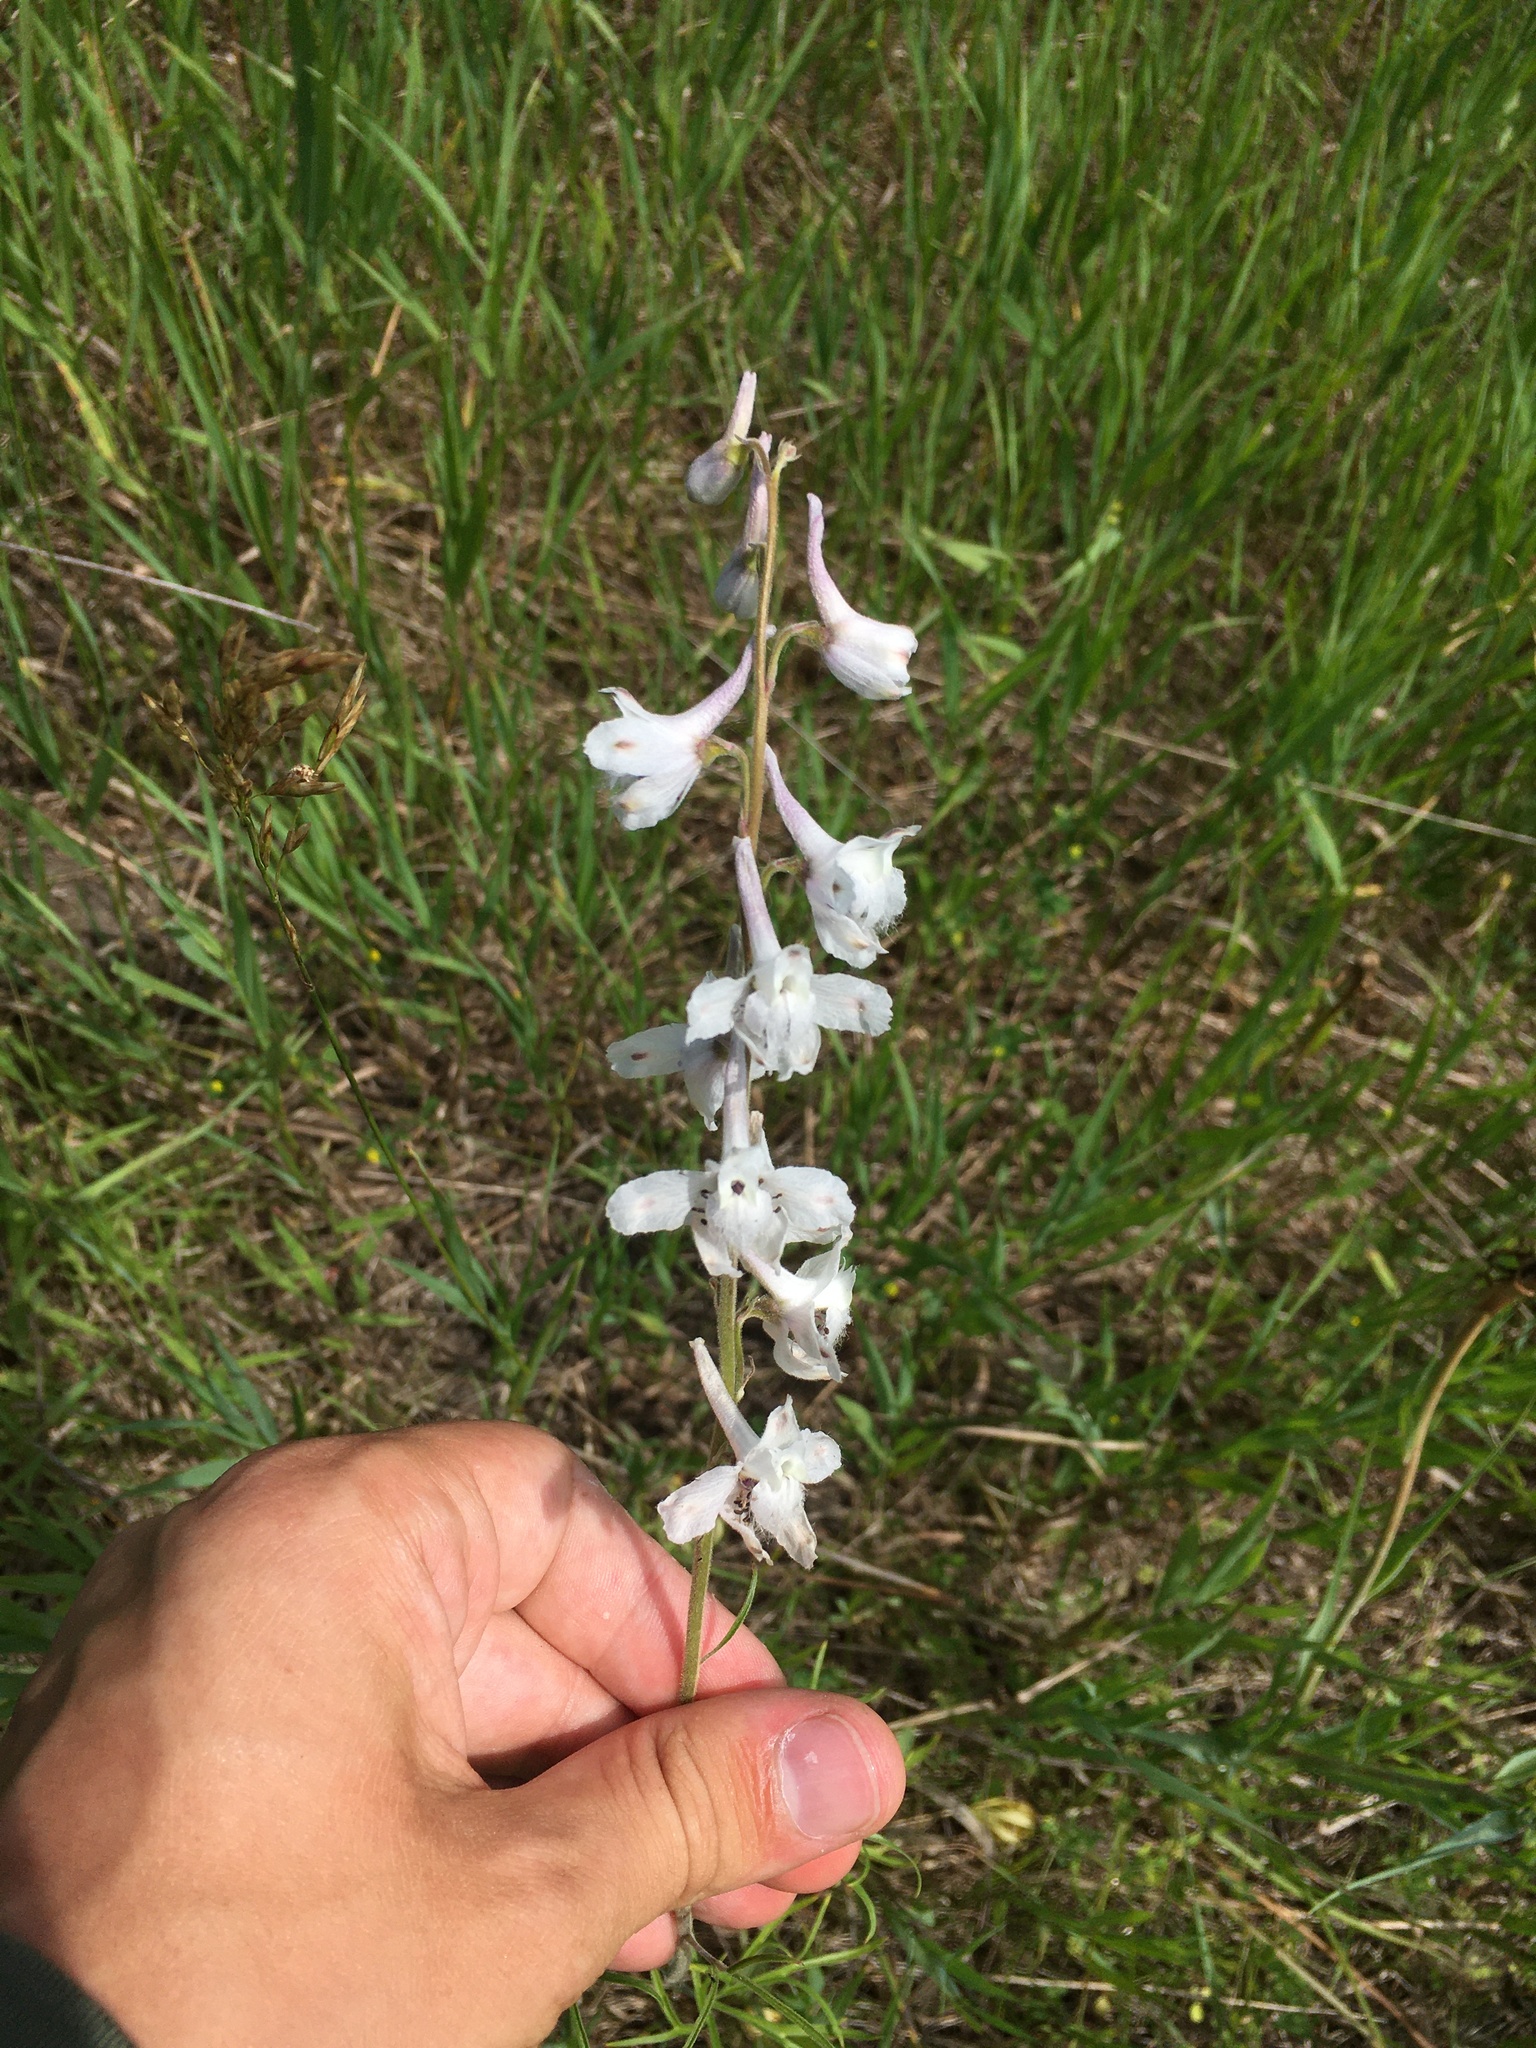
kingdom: Plantae
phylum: Tracheophyta
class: Magnoliopsida
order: Ranunculales
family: Ranunculaceae
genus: Delphinium
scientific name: Delphinium carolinianum
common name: Carolina larkspur
